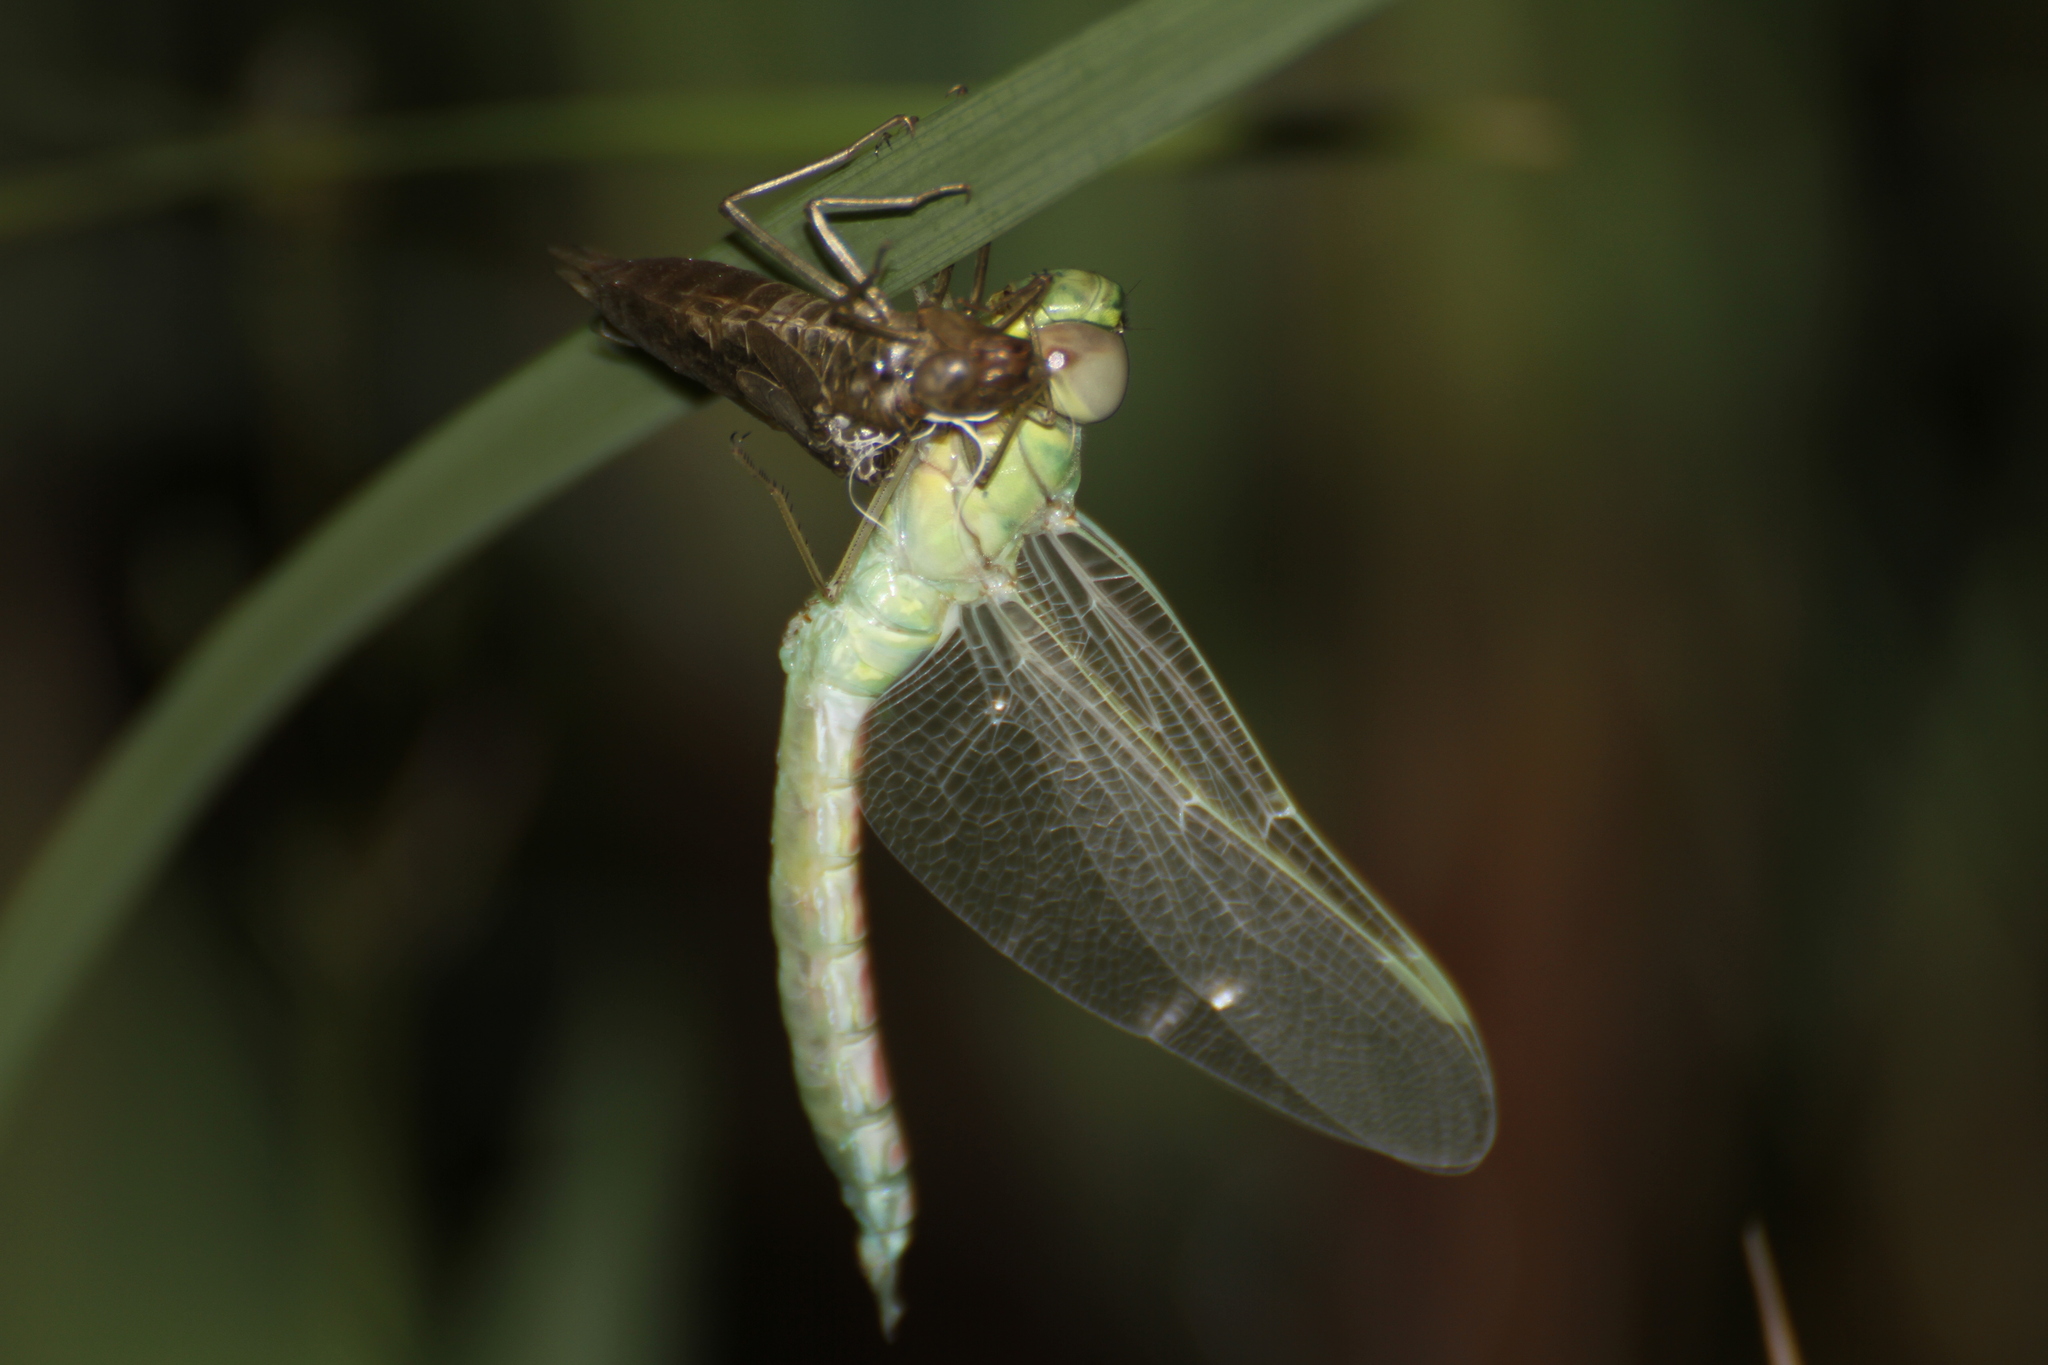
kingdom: Animalia
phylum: Arthropoda
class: Insecta
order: Odonata
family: Aeshnidae
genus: Anax
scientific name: Anax imperator
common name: Emperor dragonfly
